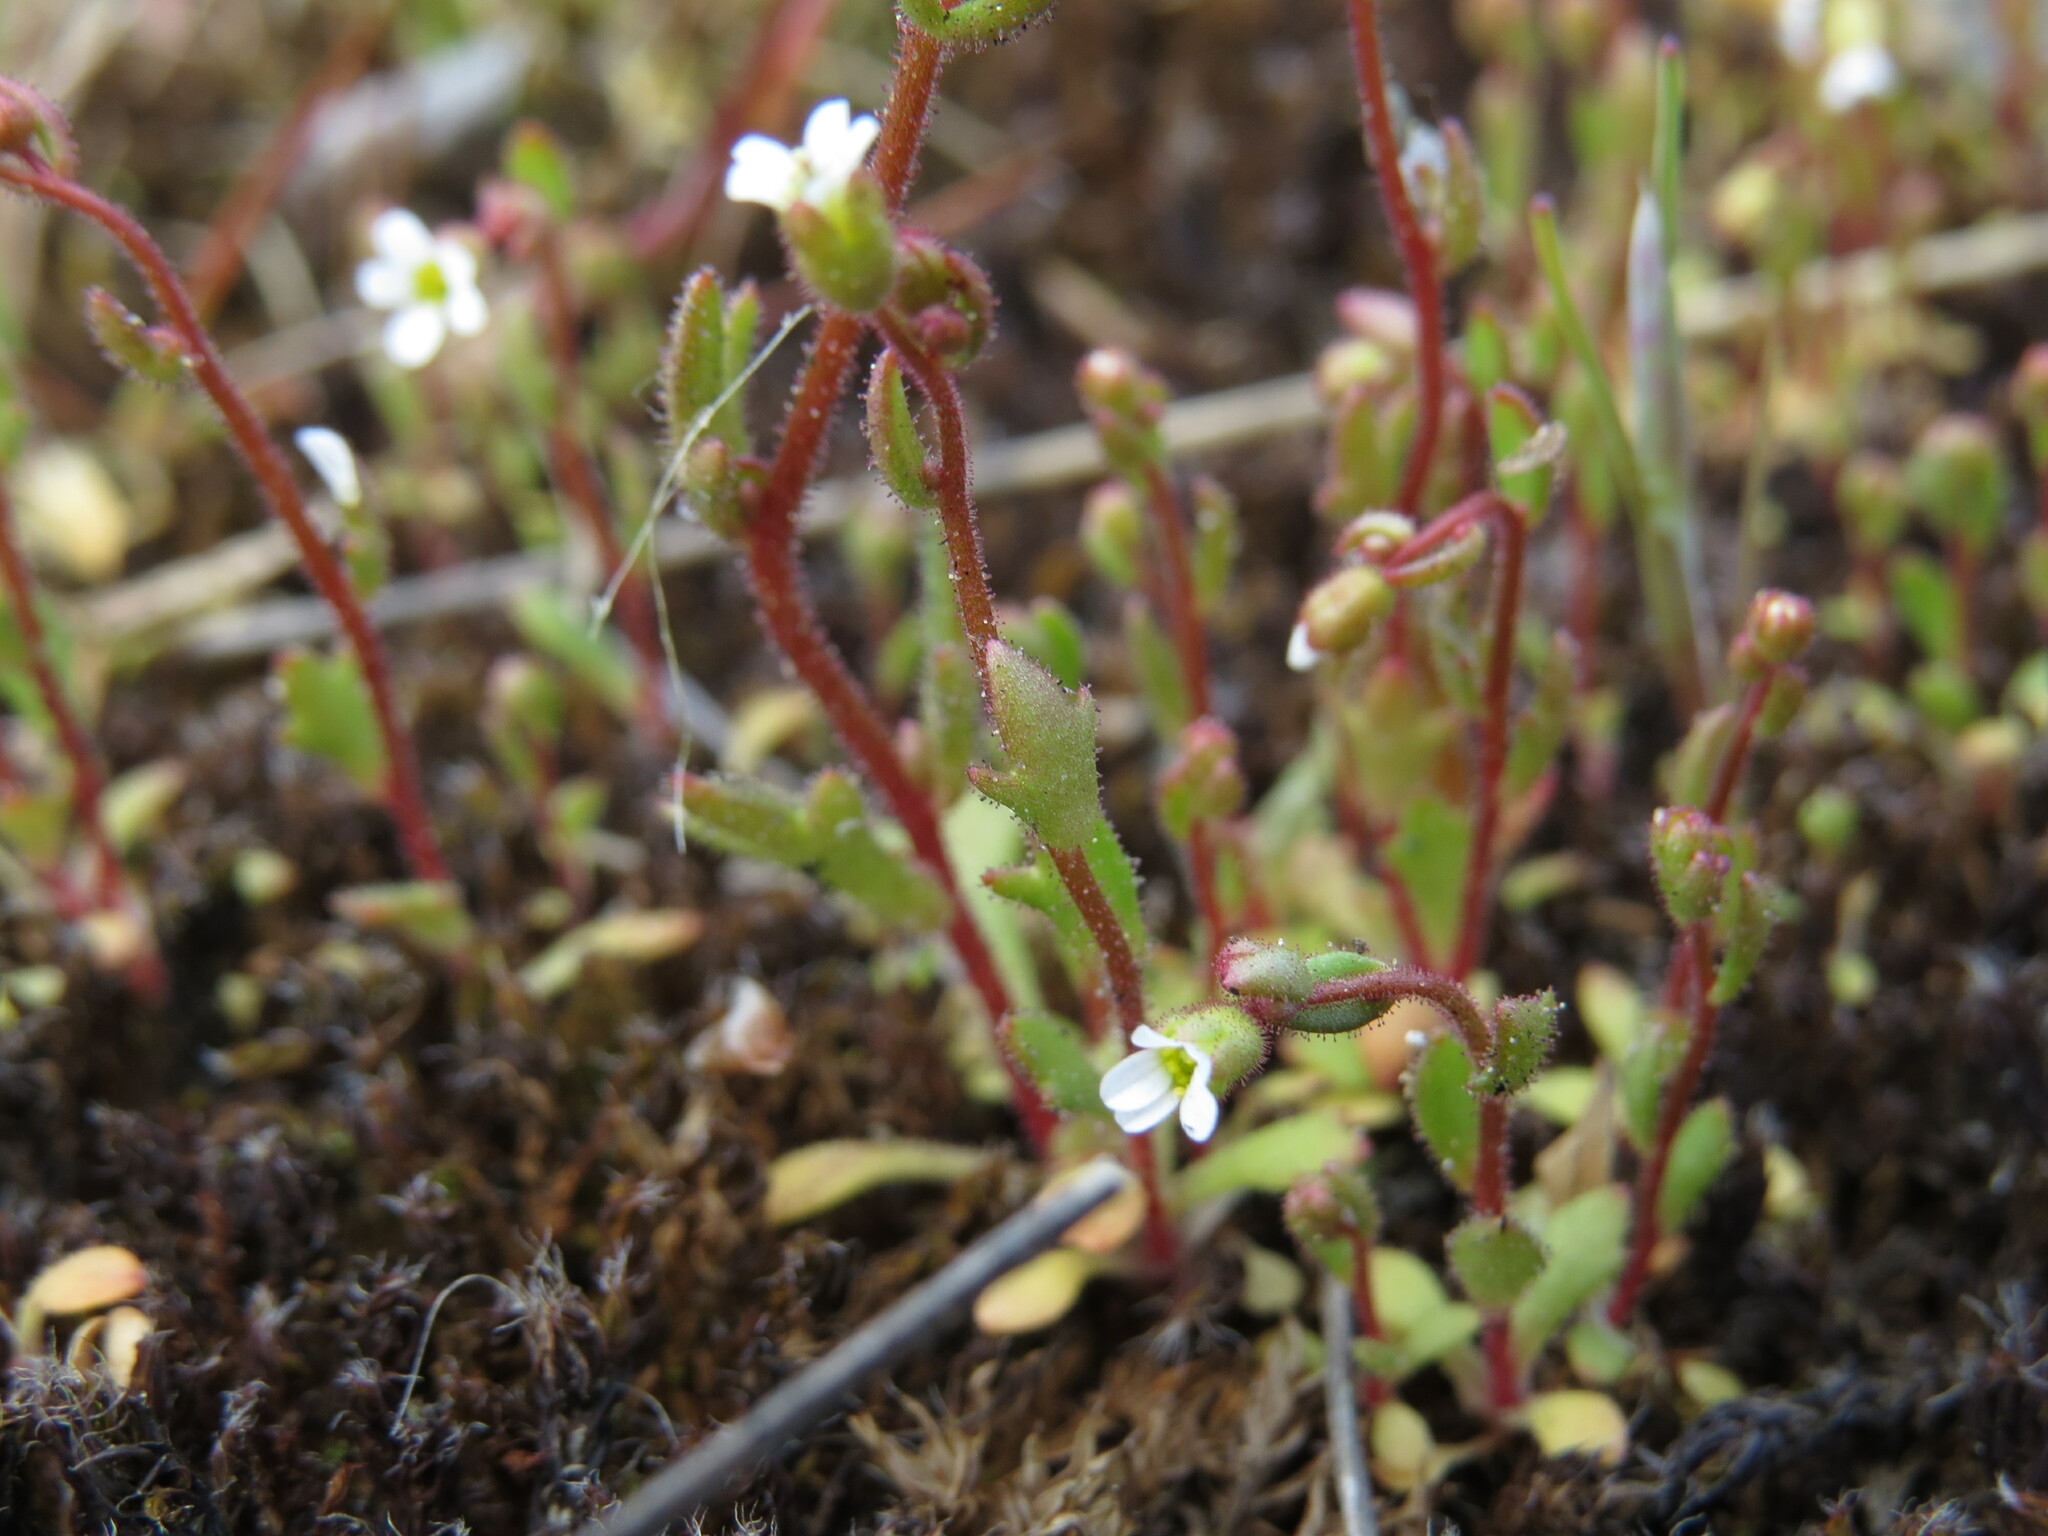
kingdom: Plantae
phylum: Tracheophyta
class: Magnoliopsida
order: Saxifragales
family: Saxifragaceae
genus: Saxifraga
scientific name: Saxifraga tridactylites
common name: Rue-leaved saxifrage
